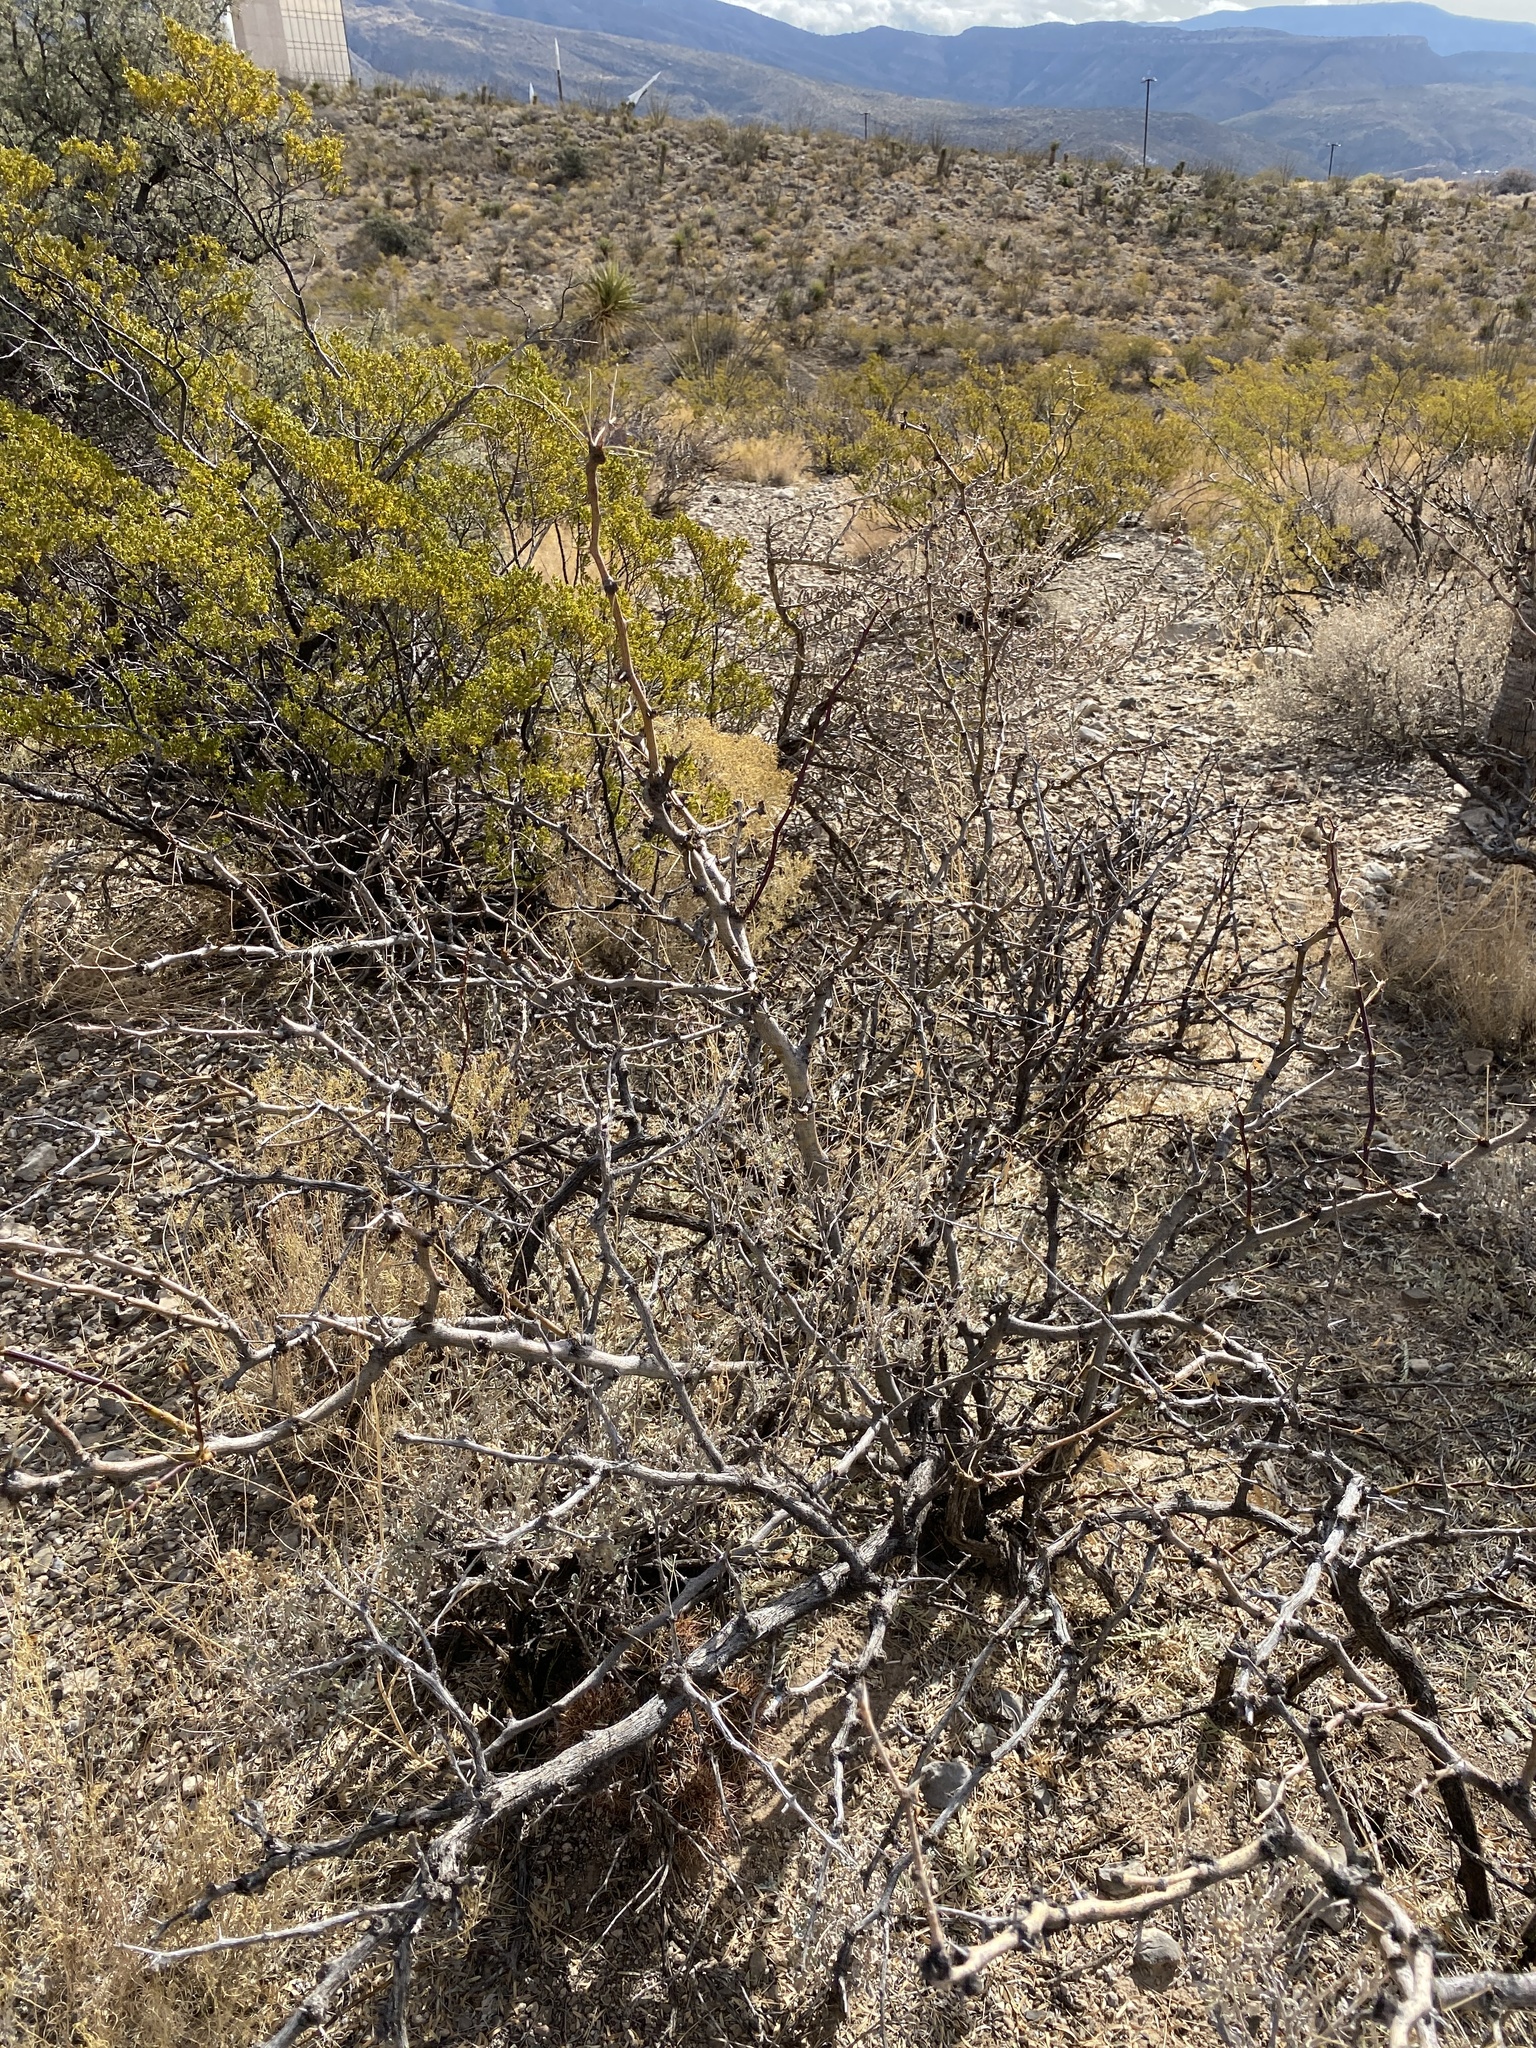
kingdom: Plantae
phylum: Tracheophyta
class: Magnoliopsida
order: Fabales
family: Fabaceae
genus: Prosopis
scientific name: Prosopis glandulosa
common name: Honey mesquite
